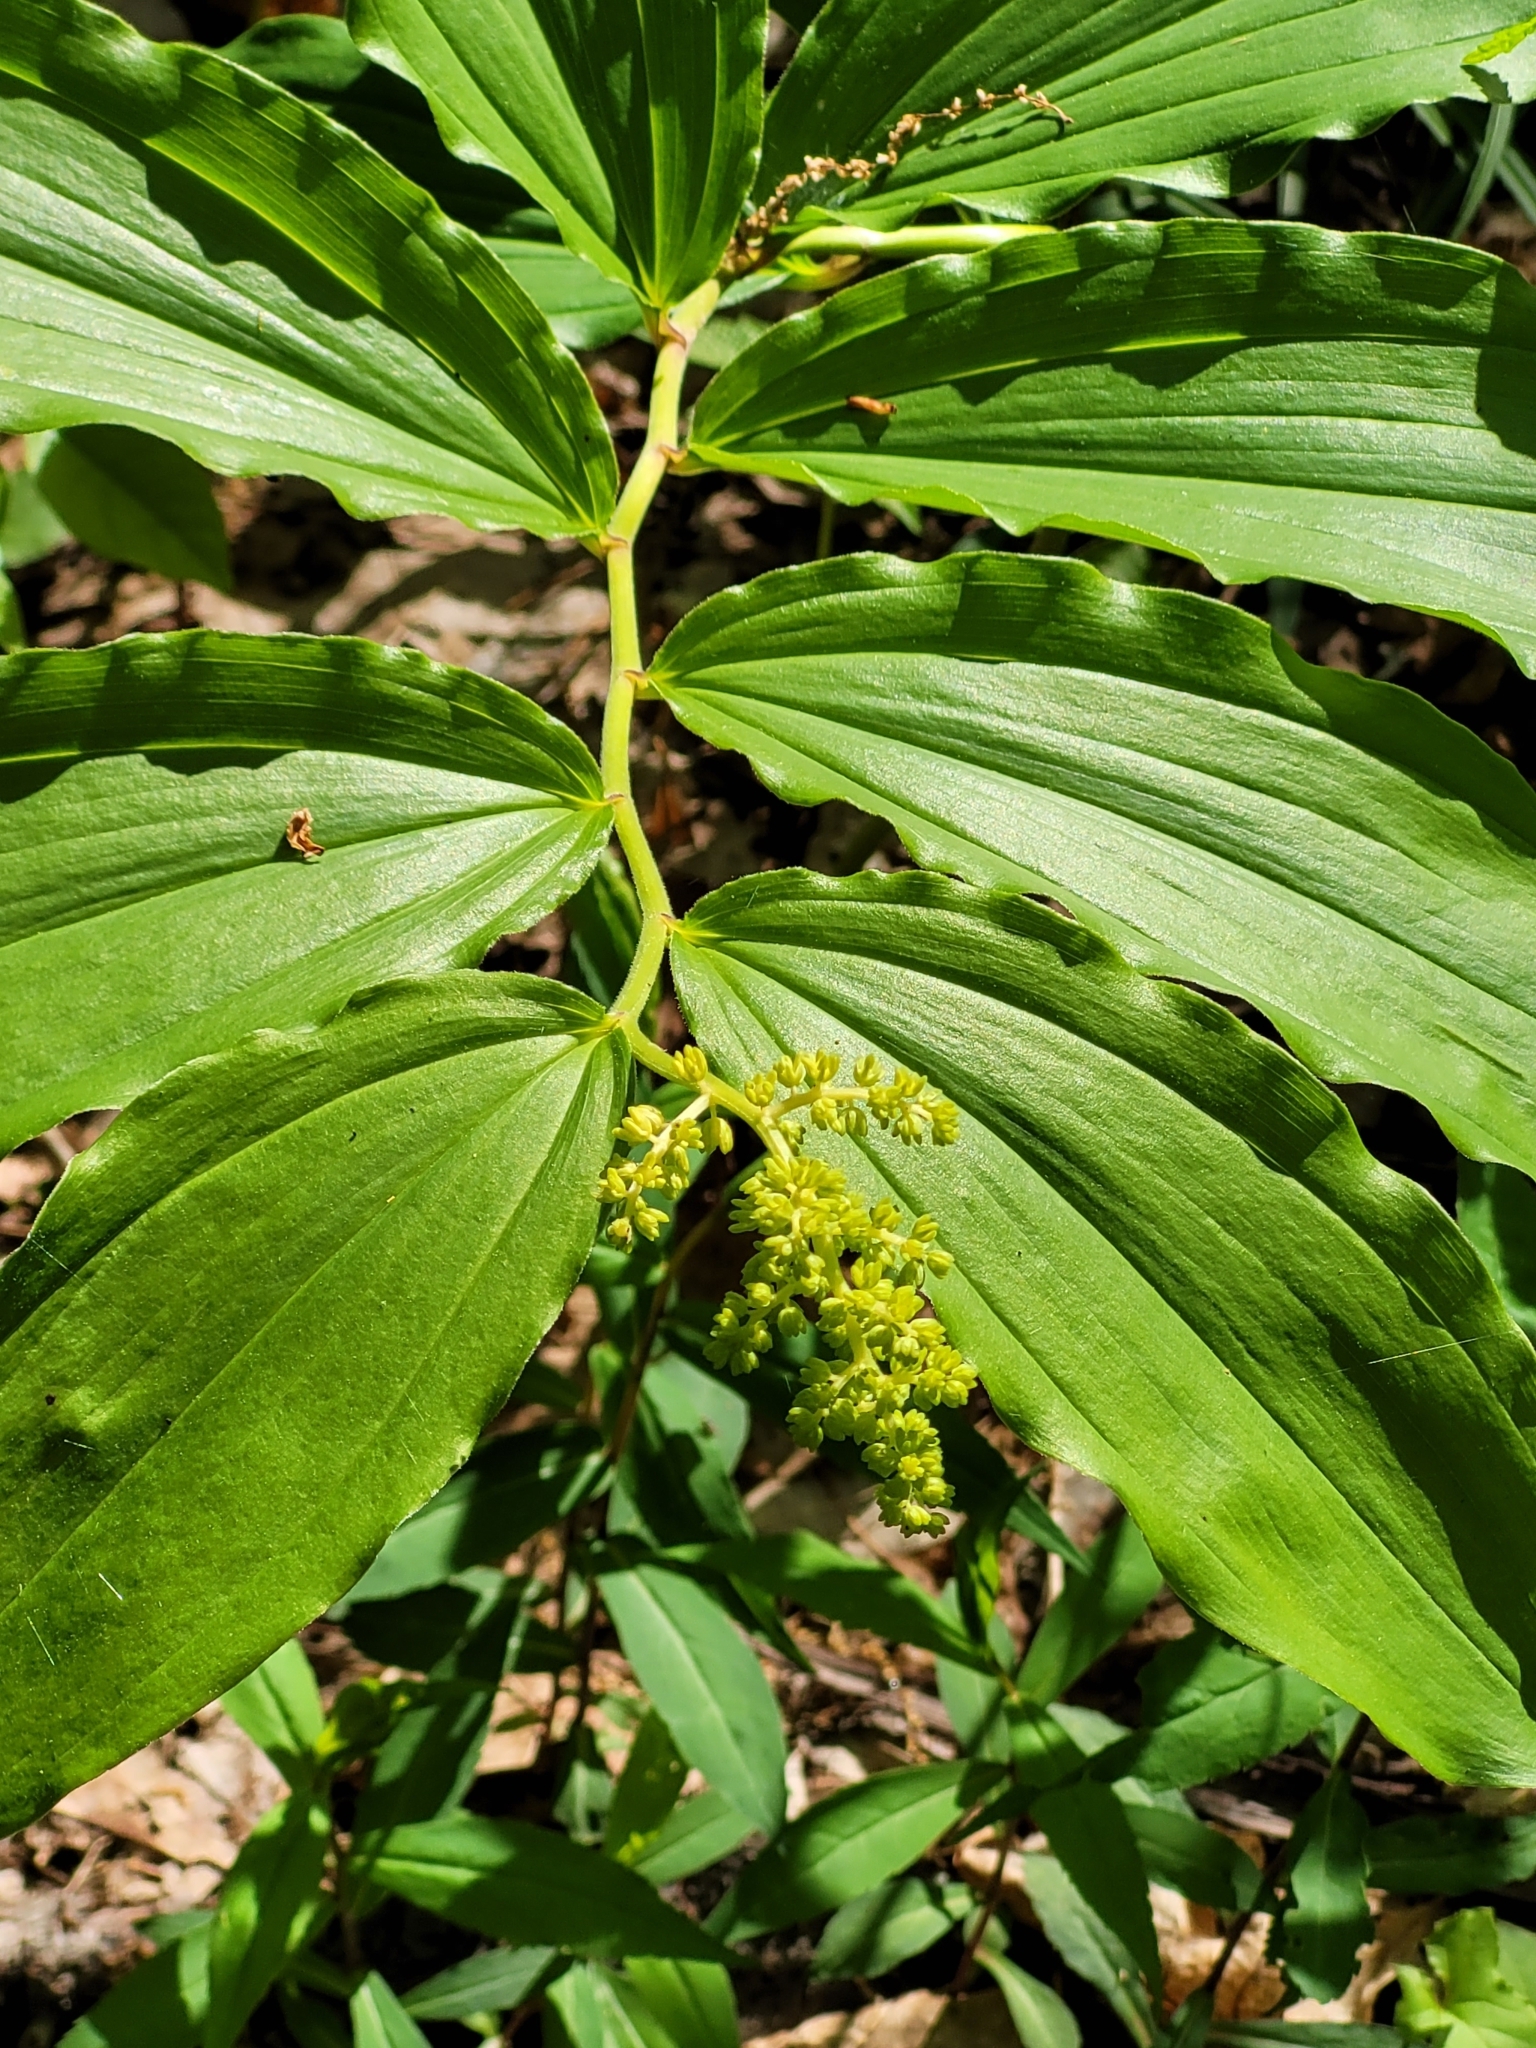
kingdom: Plantae
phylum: Tracheophyta
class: Liliopsida
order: Asparagales
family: Asparagaceae
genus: Maianthemum
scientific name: Maianthemum racemosum
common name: False spikenard
